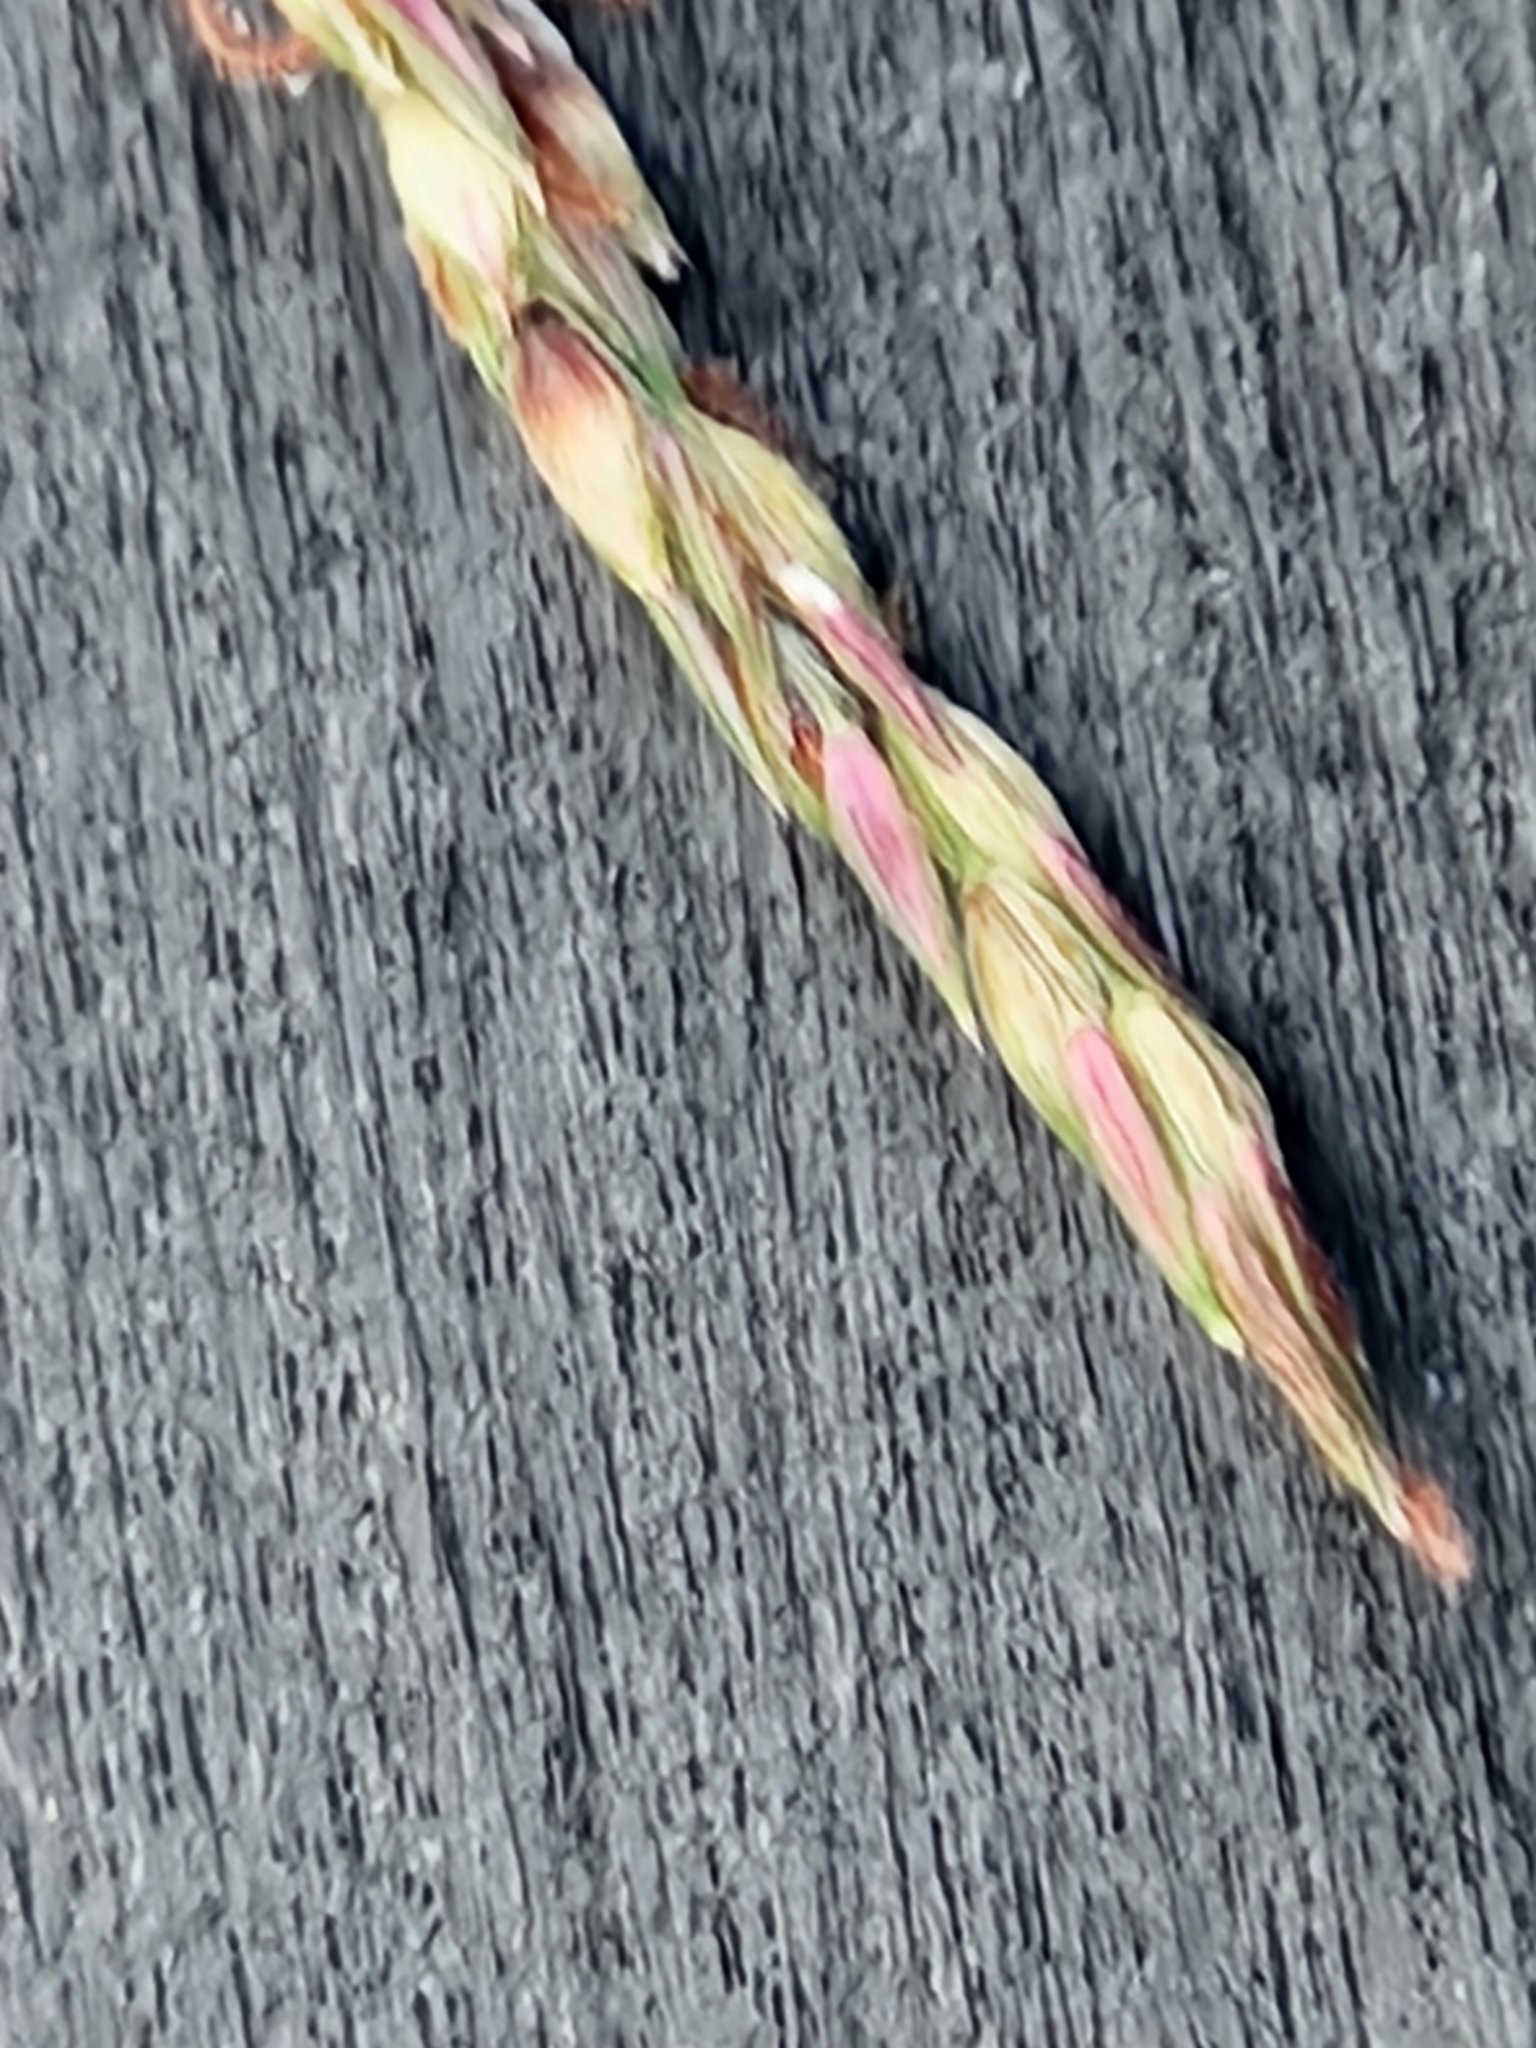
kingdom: Plantae
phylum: Tracheophyta
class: Liliopsida
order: Poales
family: Poaceae
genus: Sorghum
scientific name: Sorghum halepense
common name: Johnson-grass
